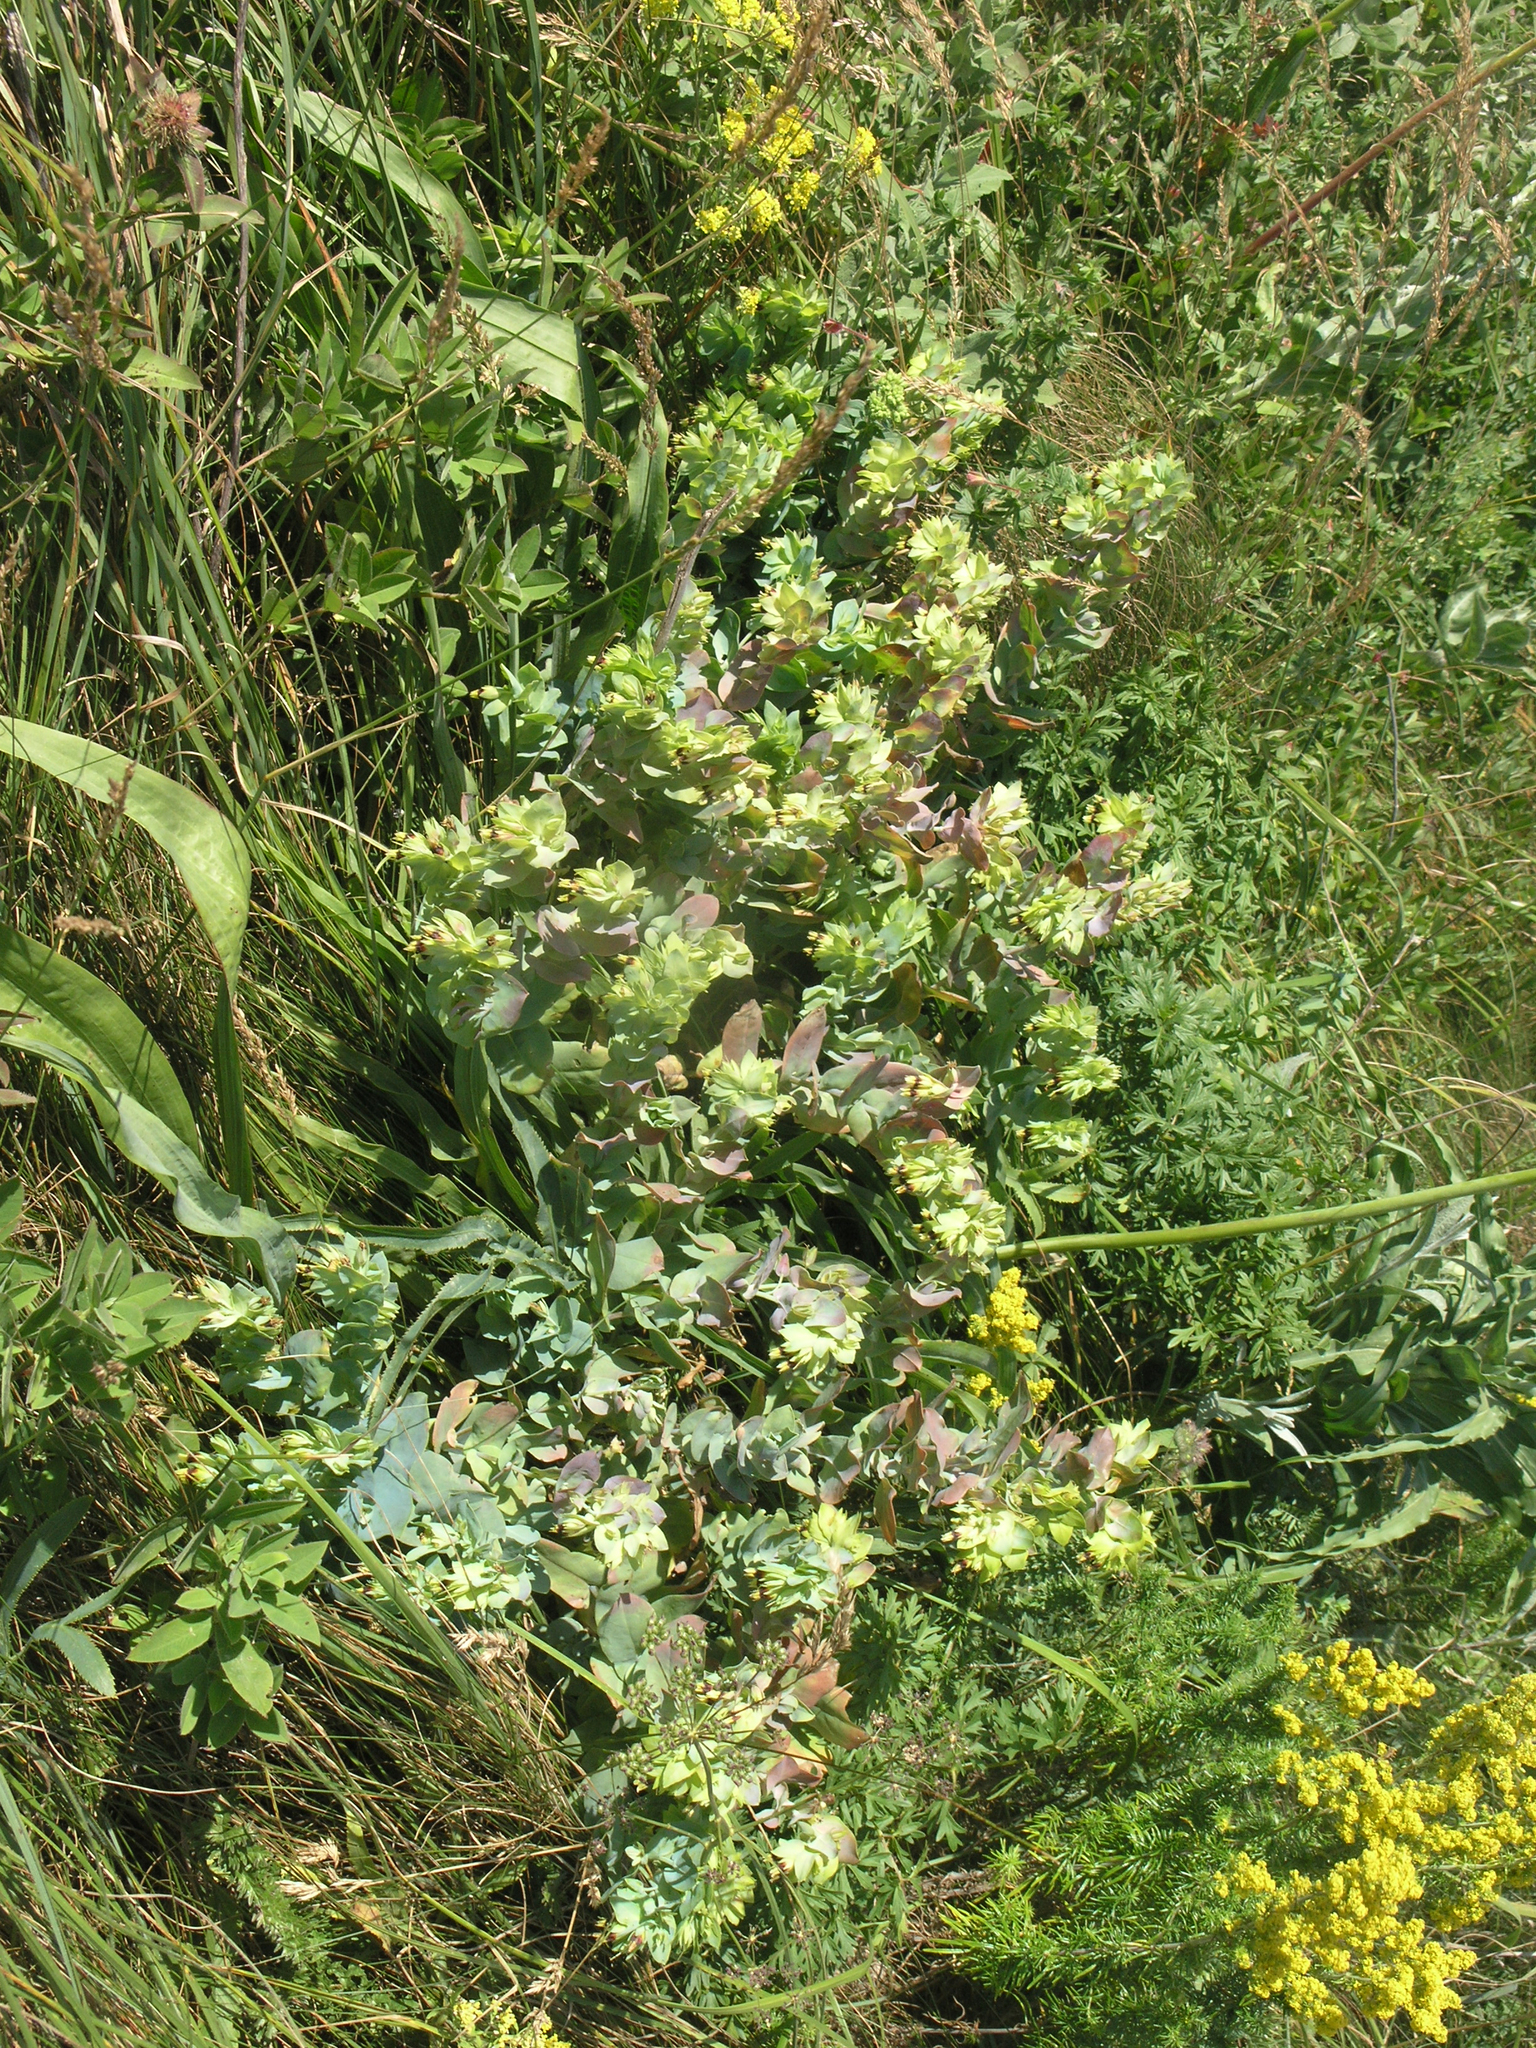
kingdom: Plantae
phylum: Tracheophyta
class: Magnoliopsida
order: Boraginales
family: Boraginaceae
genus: Cerinthe
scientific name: Cerinthe minor
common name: Lesser honeywort
